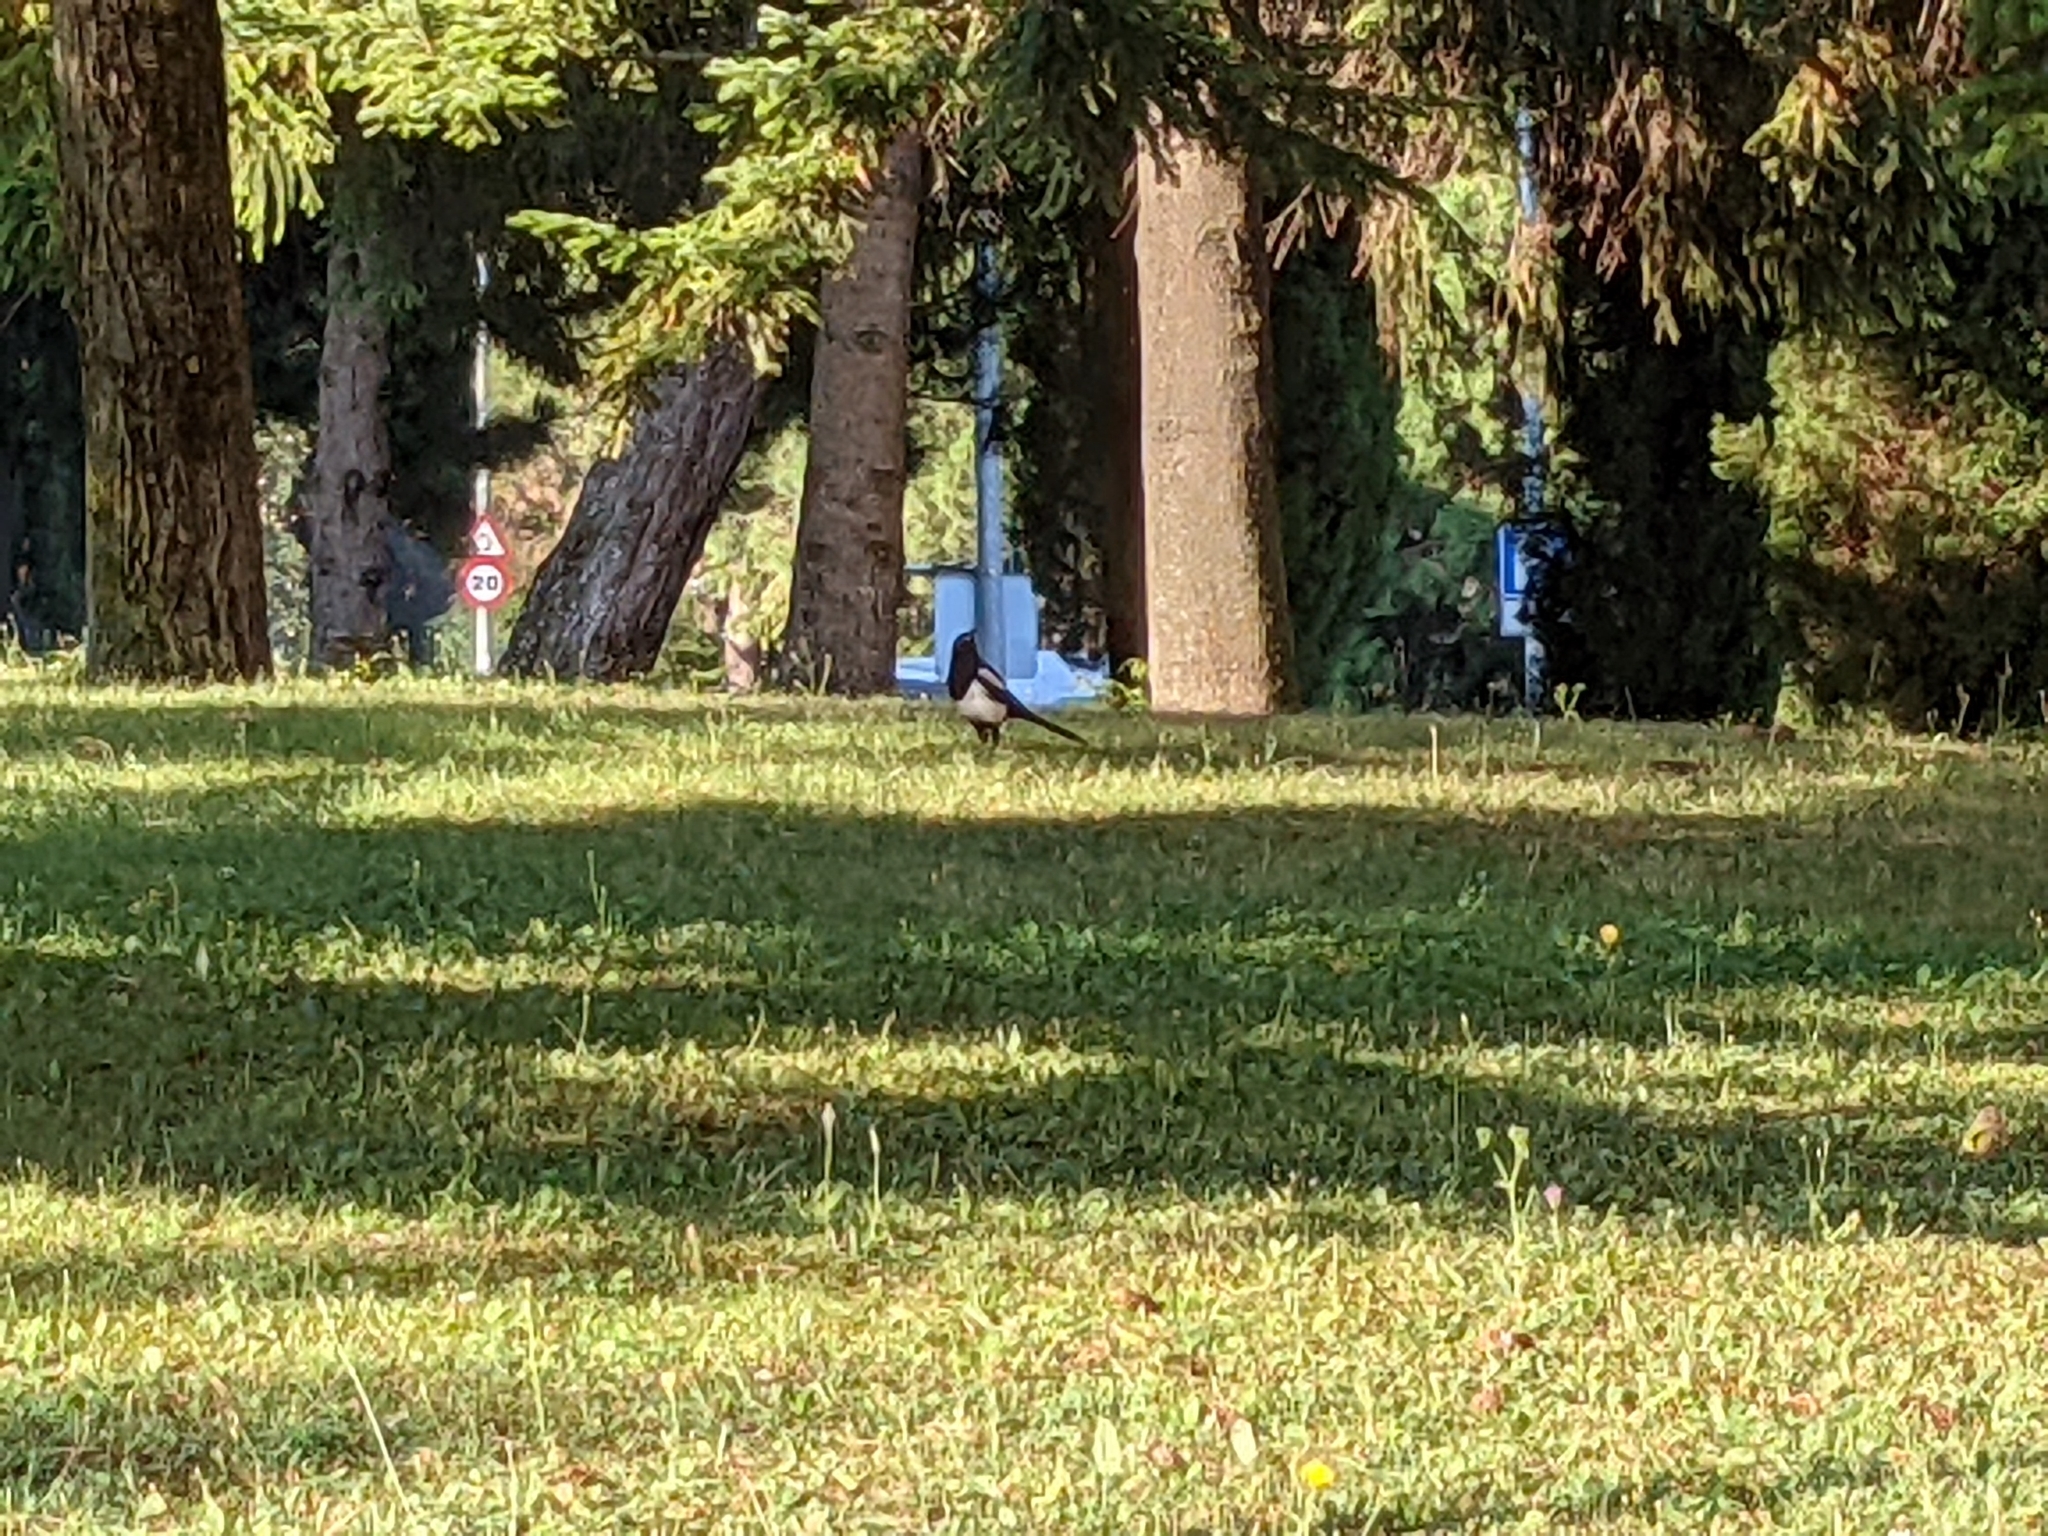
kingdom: Animalia
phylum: Chordata
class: Aves
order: Passeriformes
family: Corvidae
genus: Pica
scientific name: Pica pica
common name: Eurasian magpie
